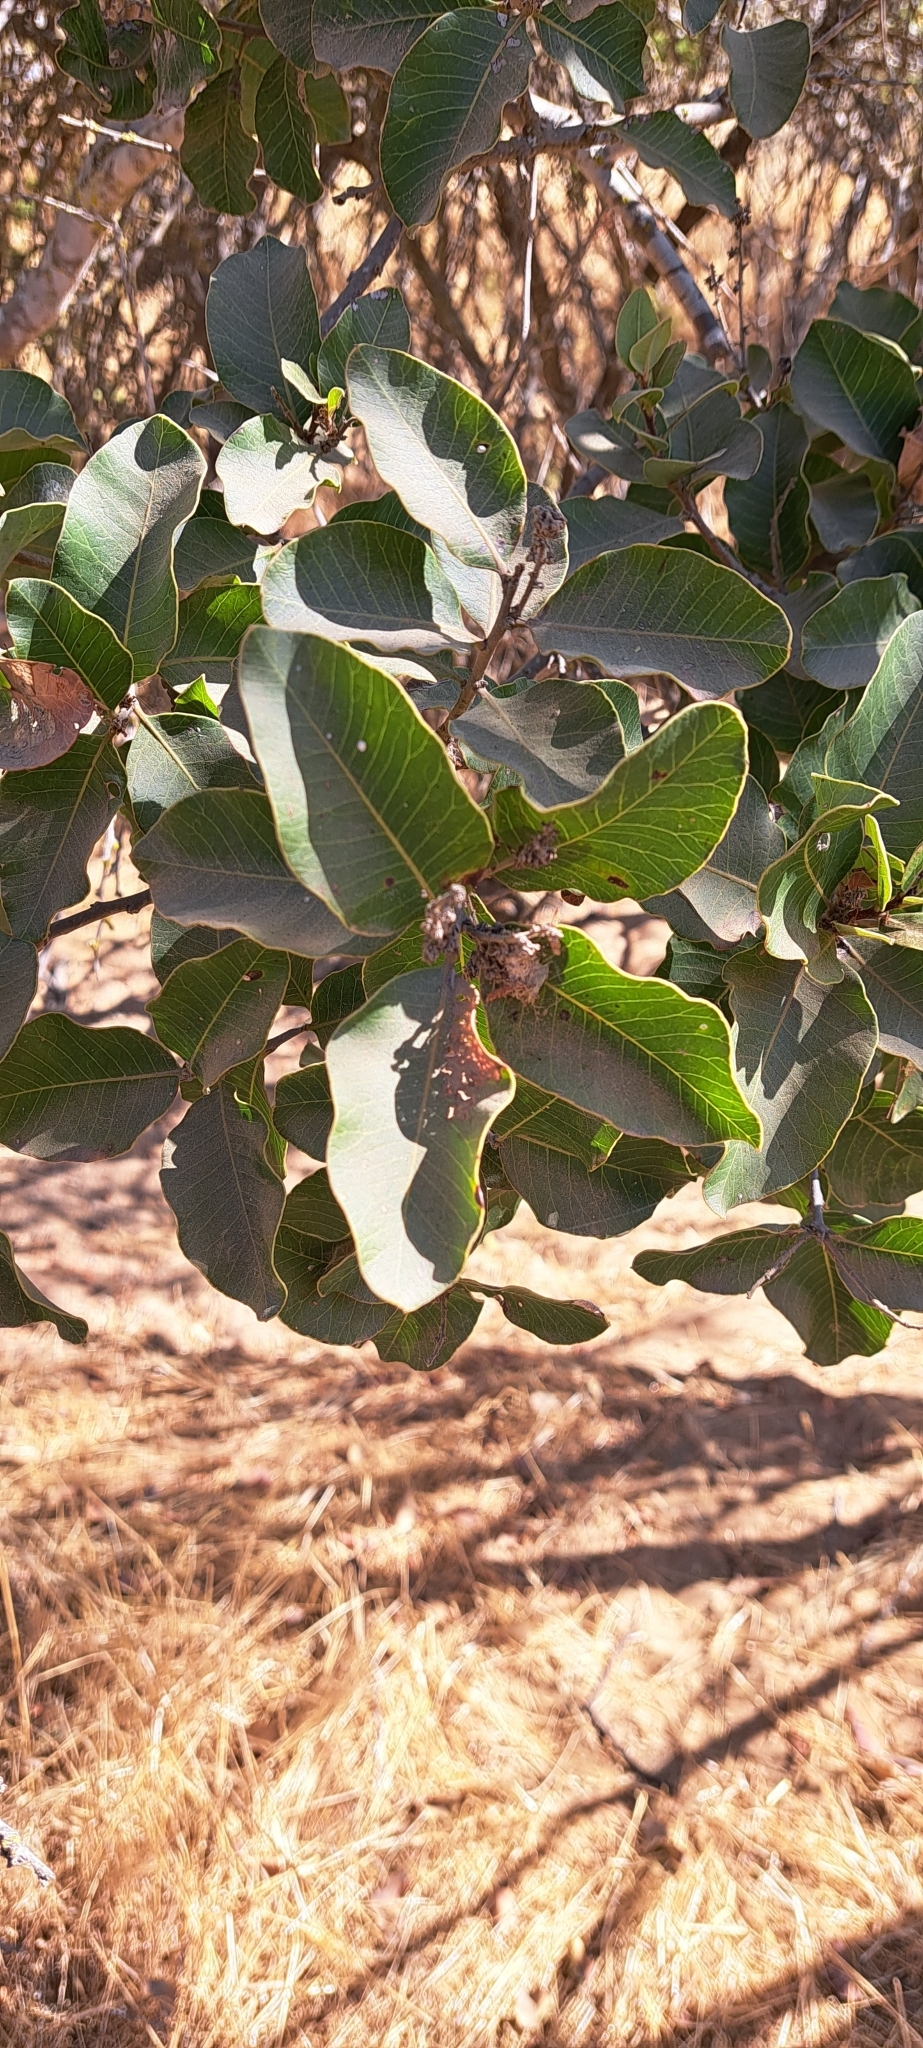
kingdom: Plantae
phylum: Tracheophyta
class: Magnoliopsida
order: Sapindales
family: Anacardiaceae
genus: Lithraea
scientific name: Lithraea caustica
